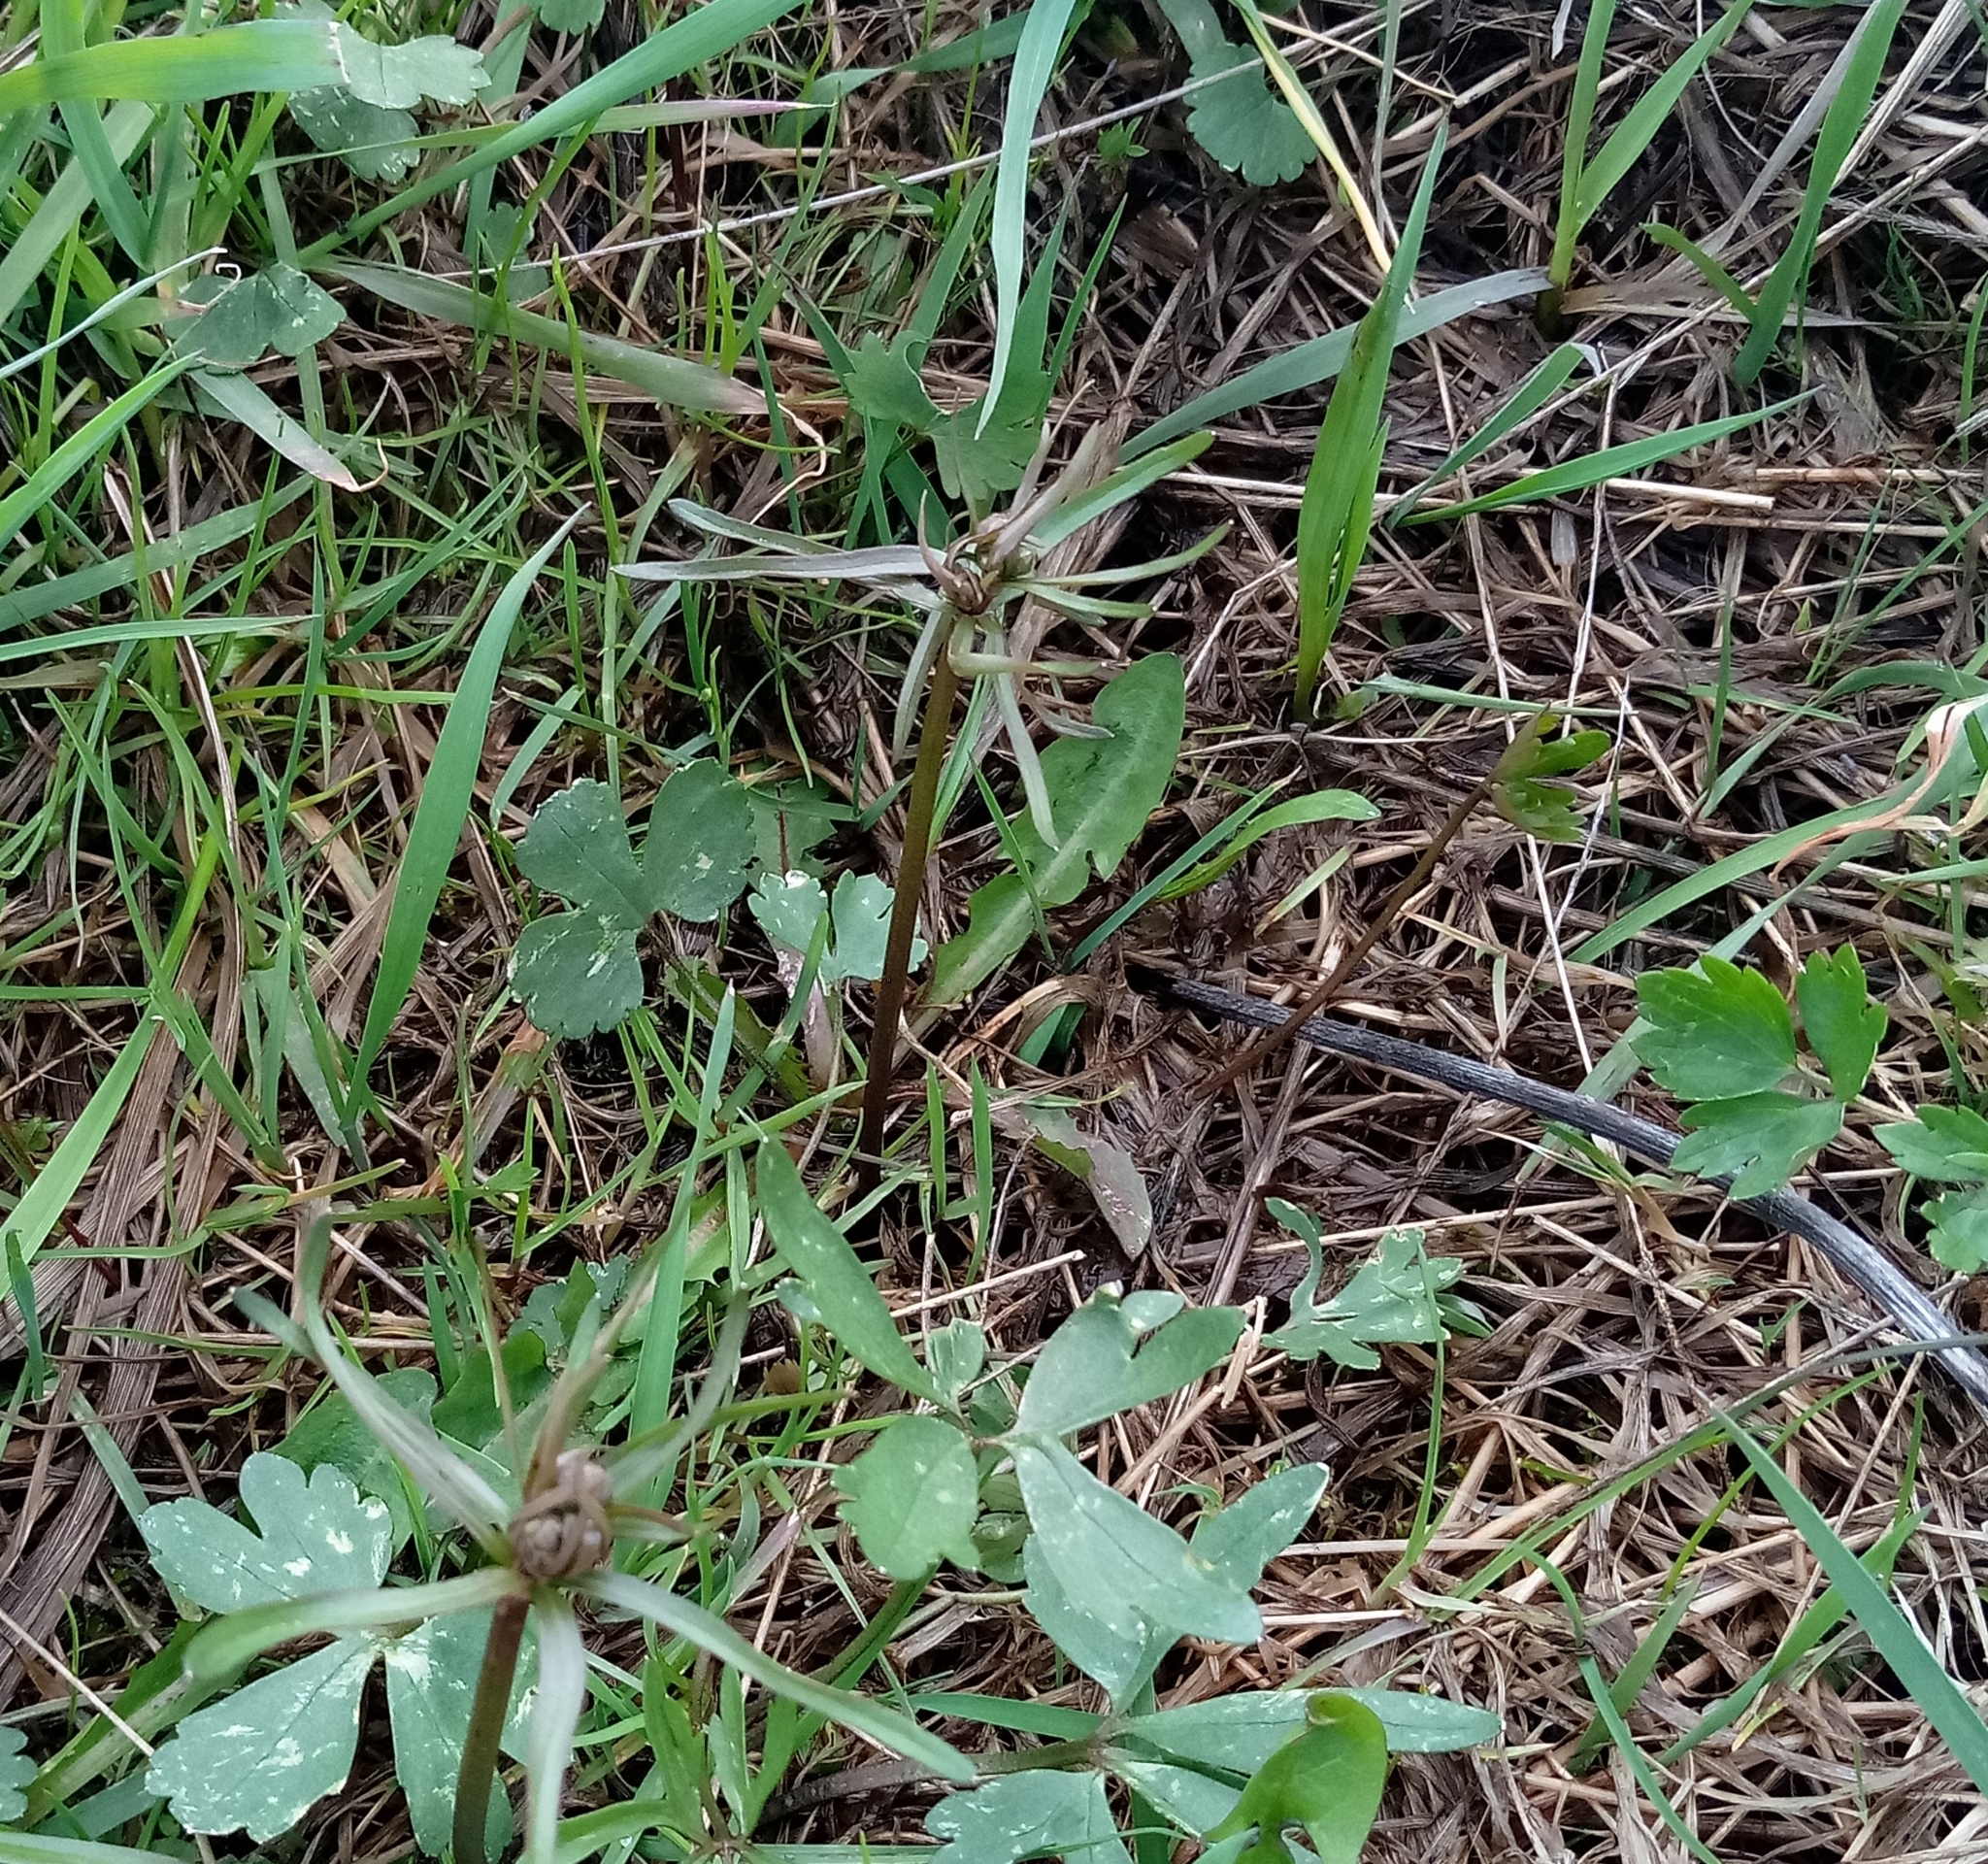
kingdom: Plantae
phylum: Tracheophyta
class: Magnoliopsida
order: Ranunculales
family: Ranunculaceae
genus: Ranunculus
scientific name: Ranunculus auricomus
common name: Goldilocks buttercup
